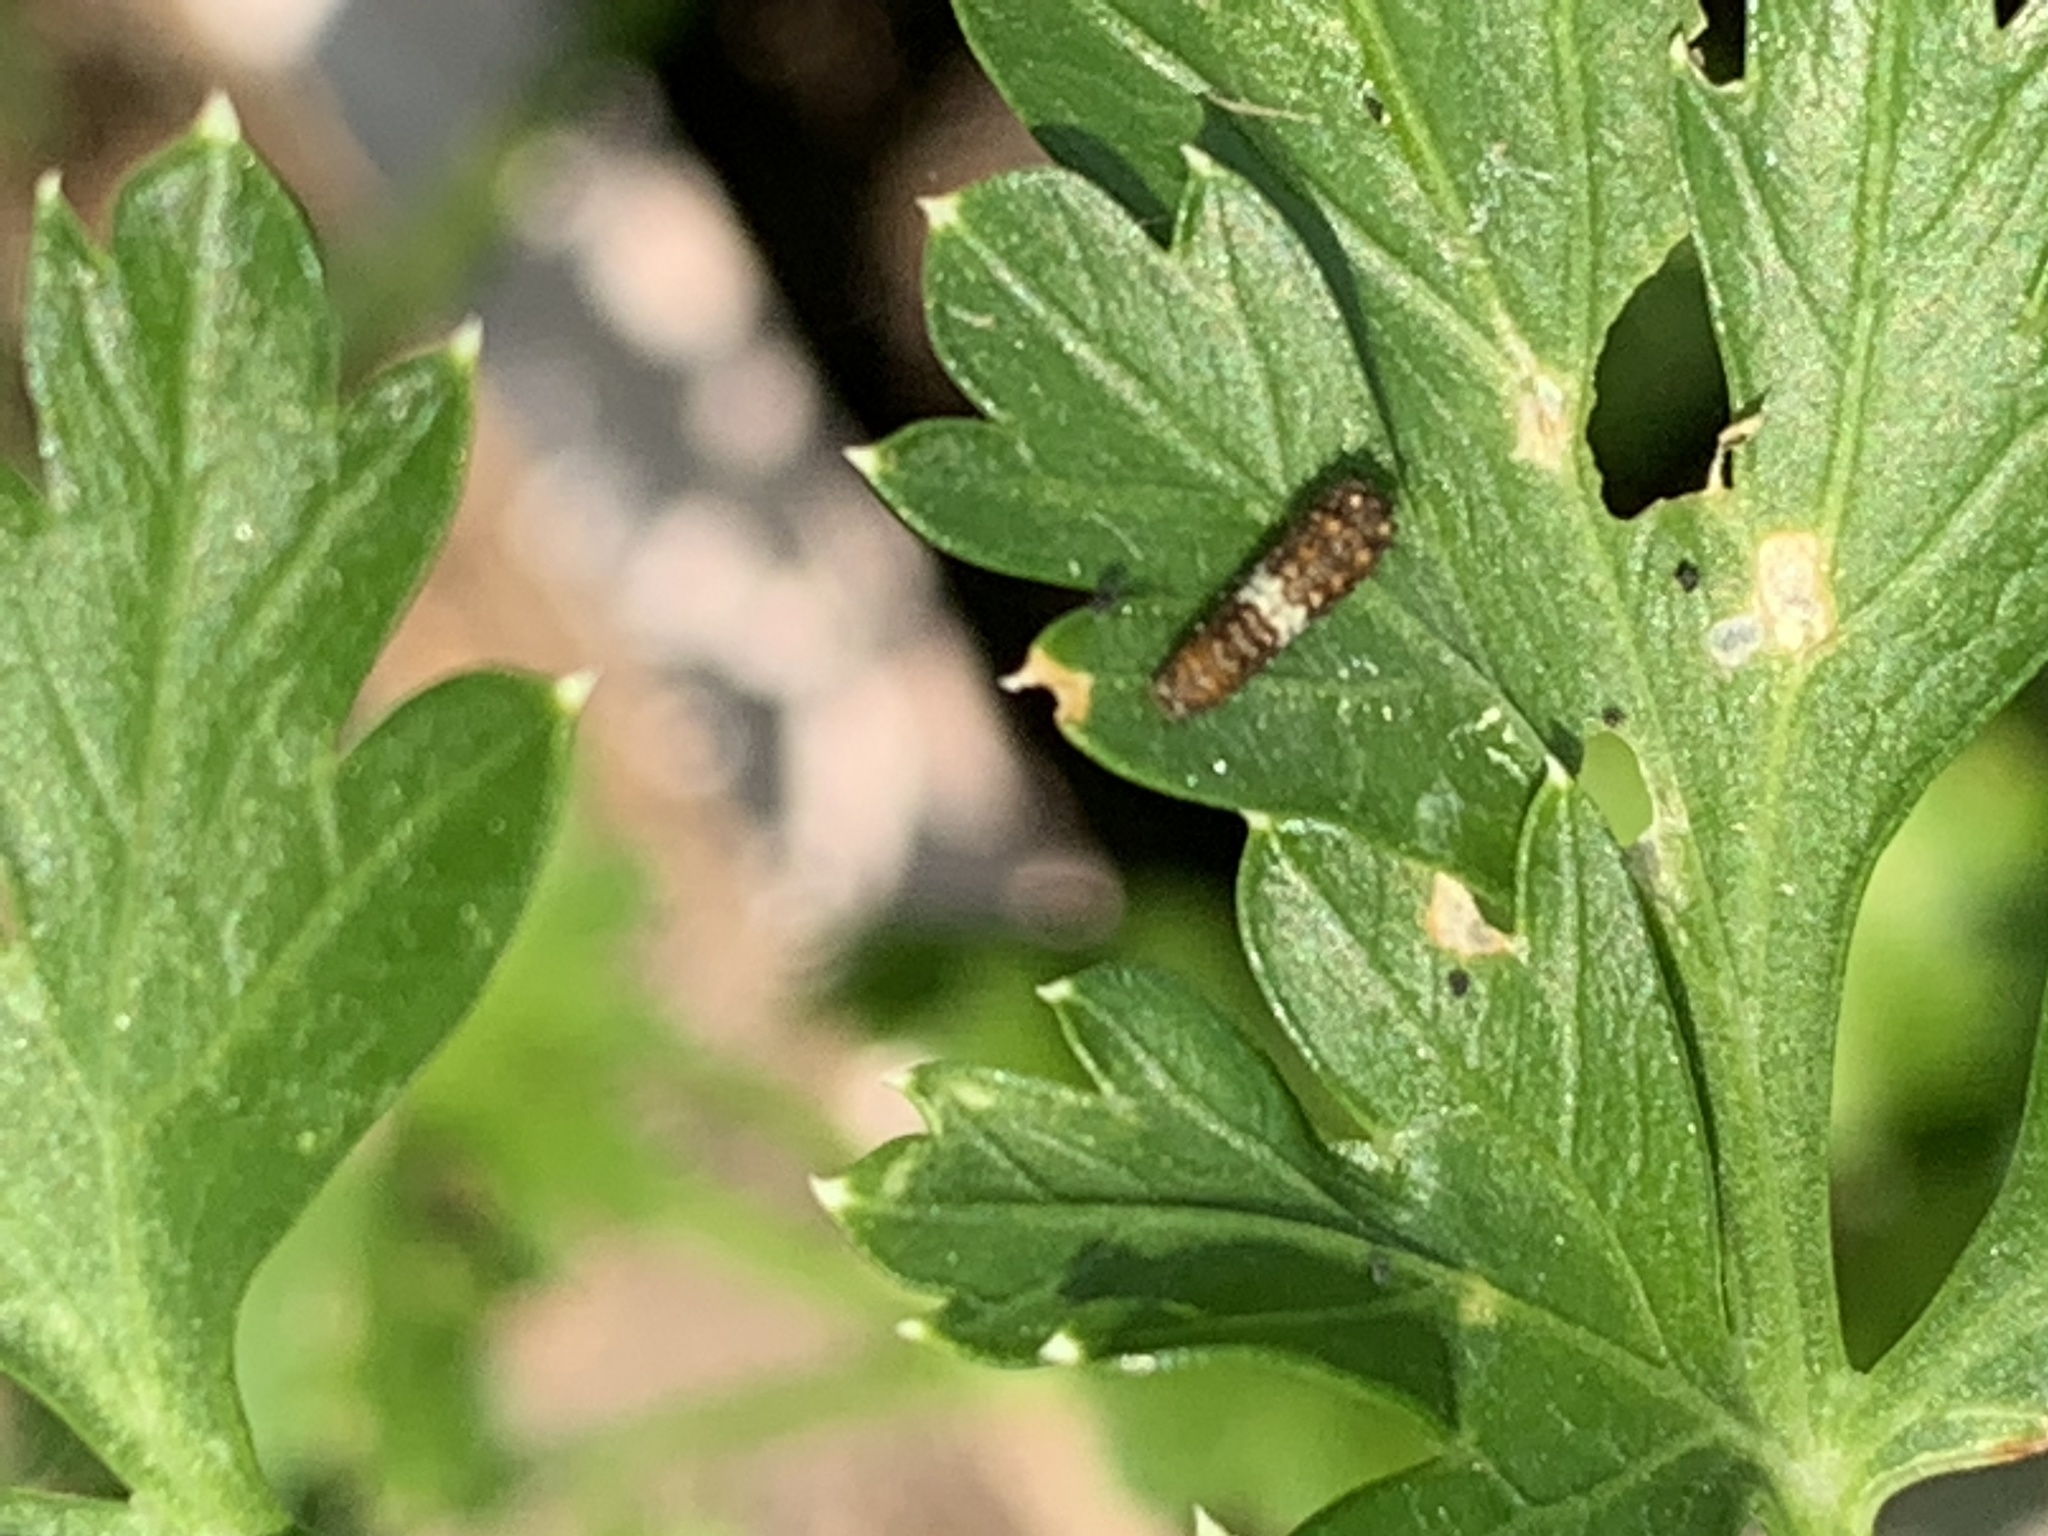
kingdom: Animalia
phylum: Arthropoda
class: Insecta
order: Lepidoptera
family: Papilionidae
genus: Papilio
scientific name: Papilio polyxenes
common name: Black swallowtail
